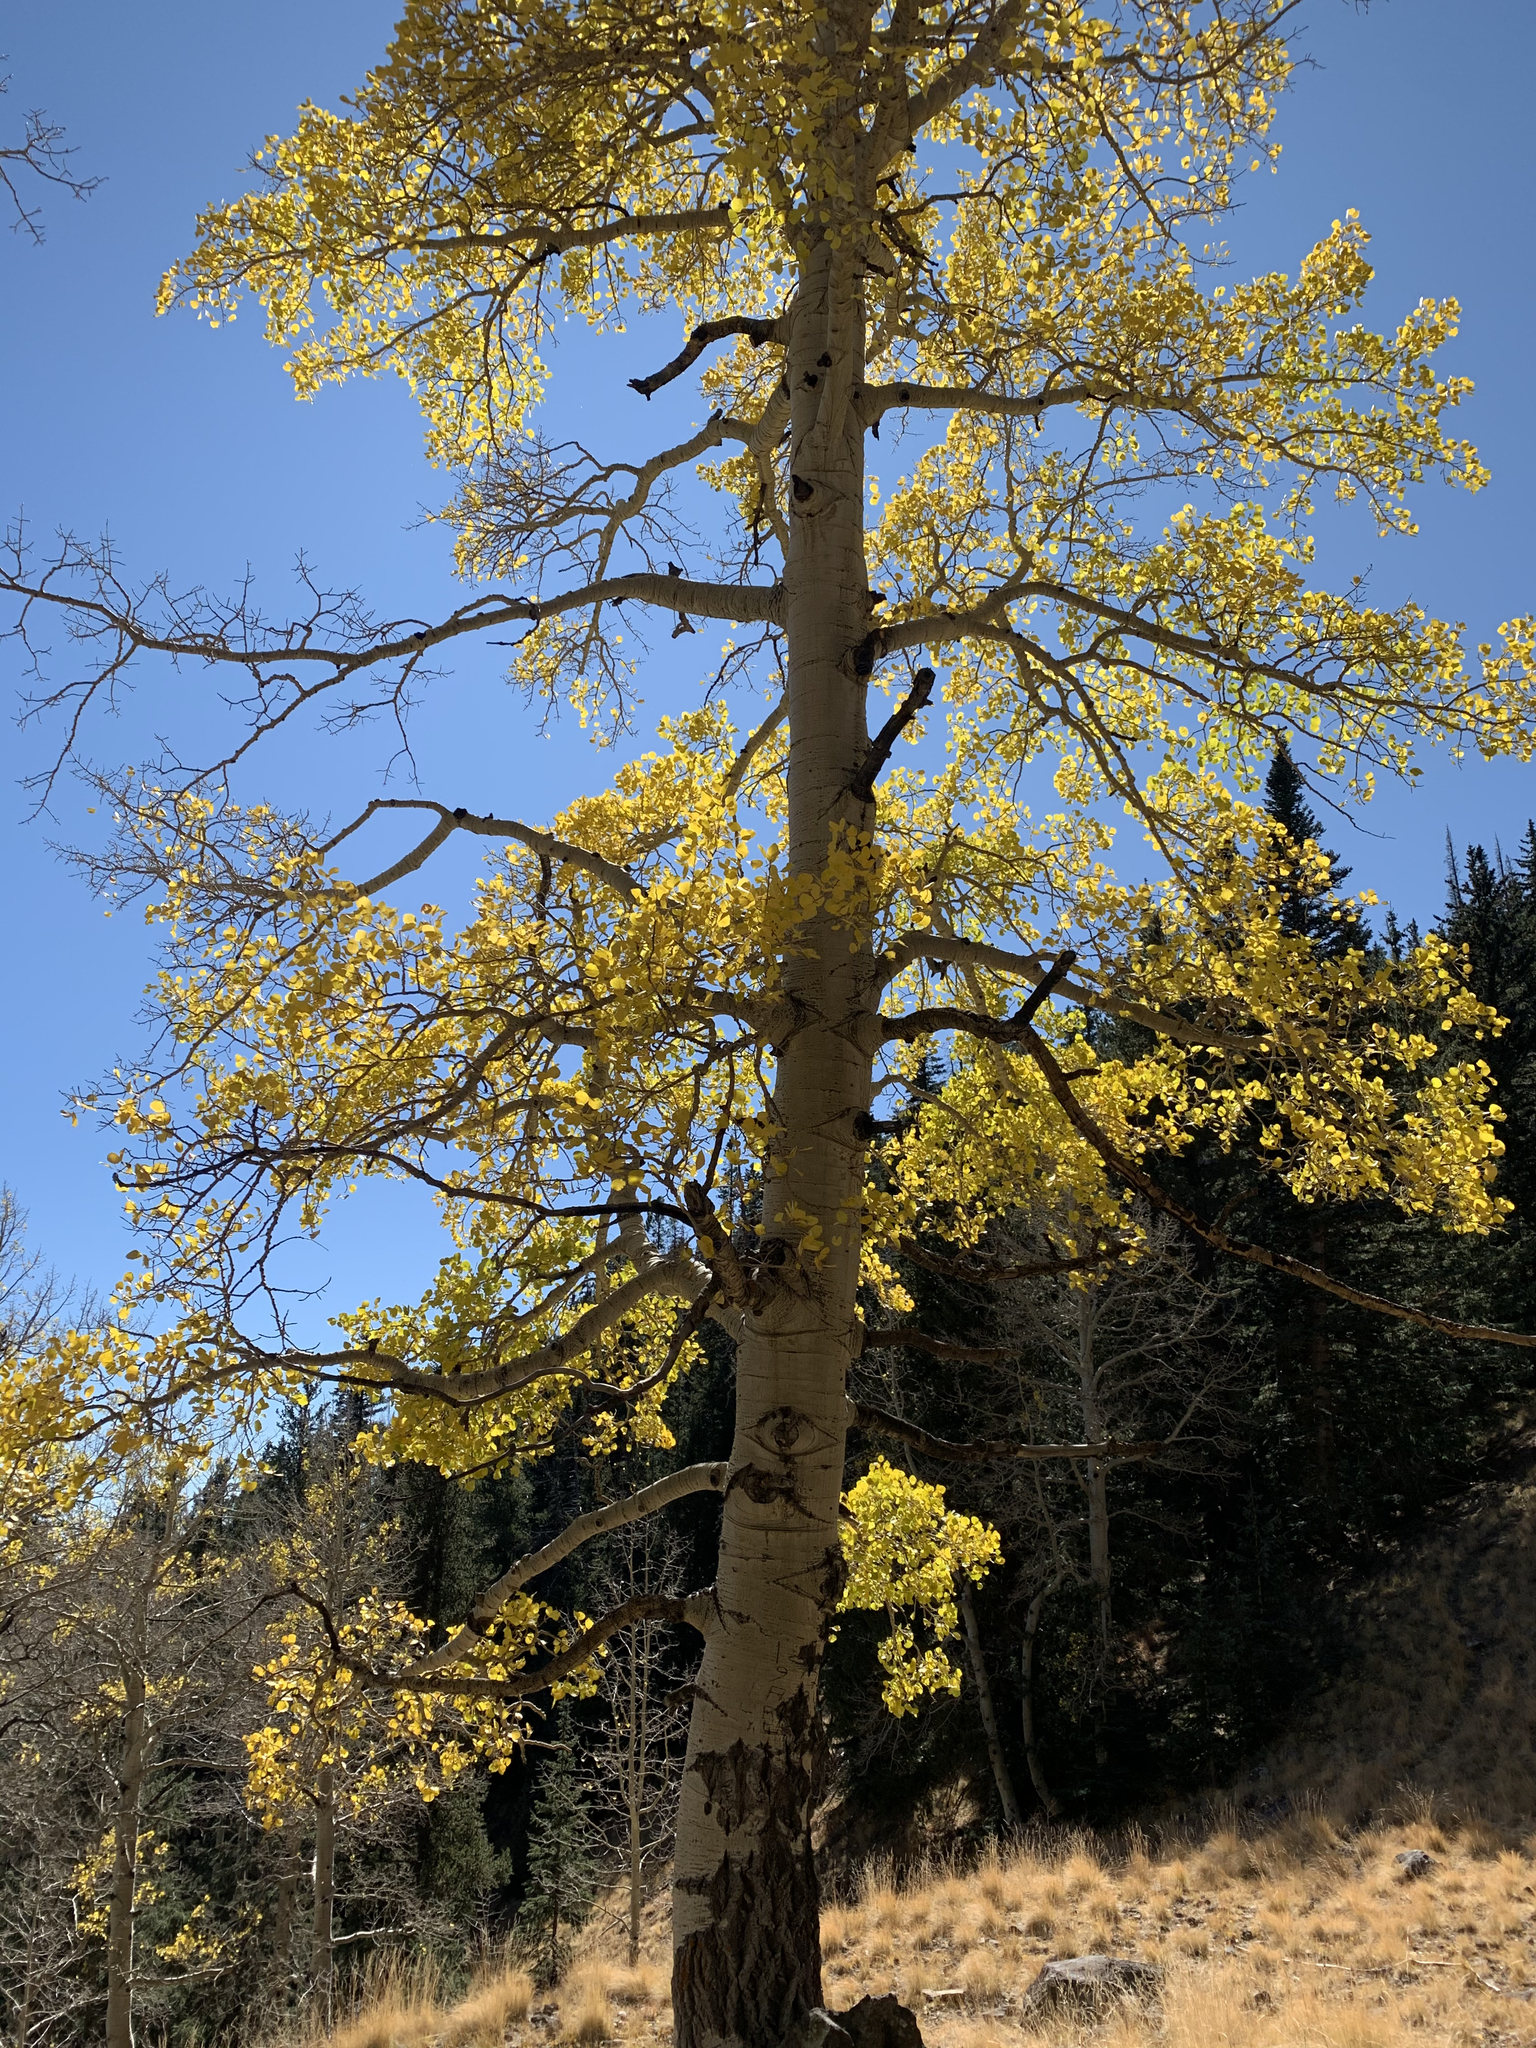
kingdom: Plantae
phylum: Tracheophyta
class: Magnoliopsida
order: Malpighiales
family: Salicaceae
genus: Populus
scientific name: Populus tremuloides
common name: Quaking aspen
